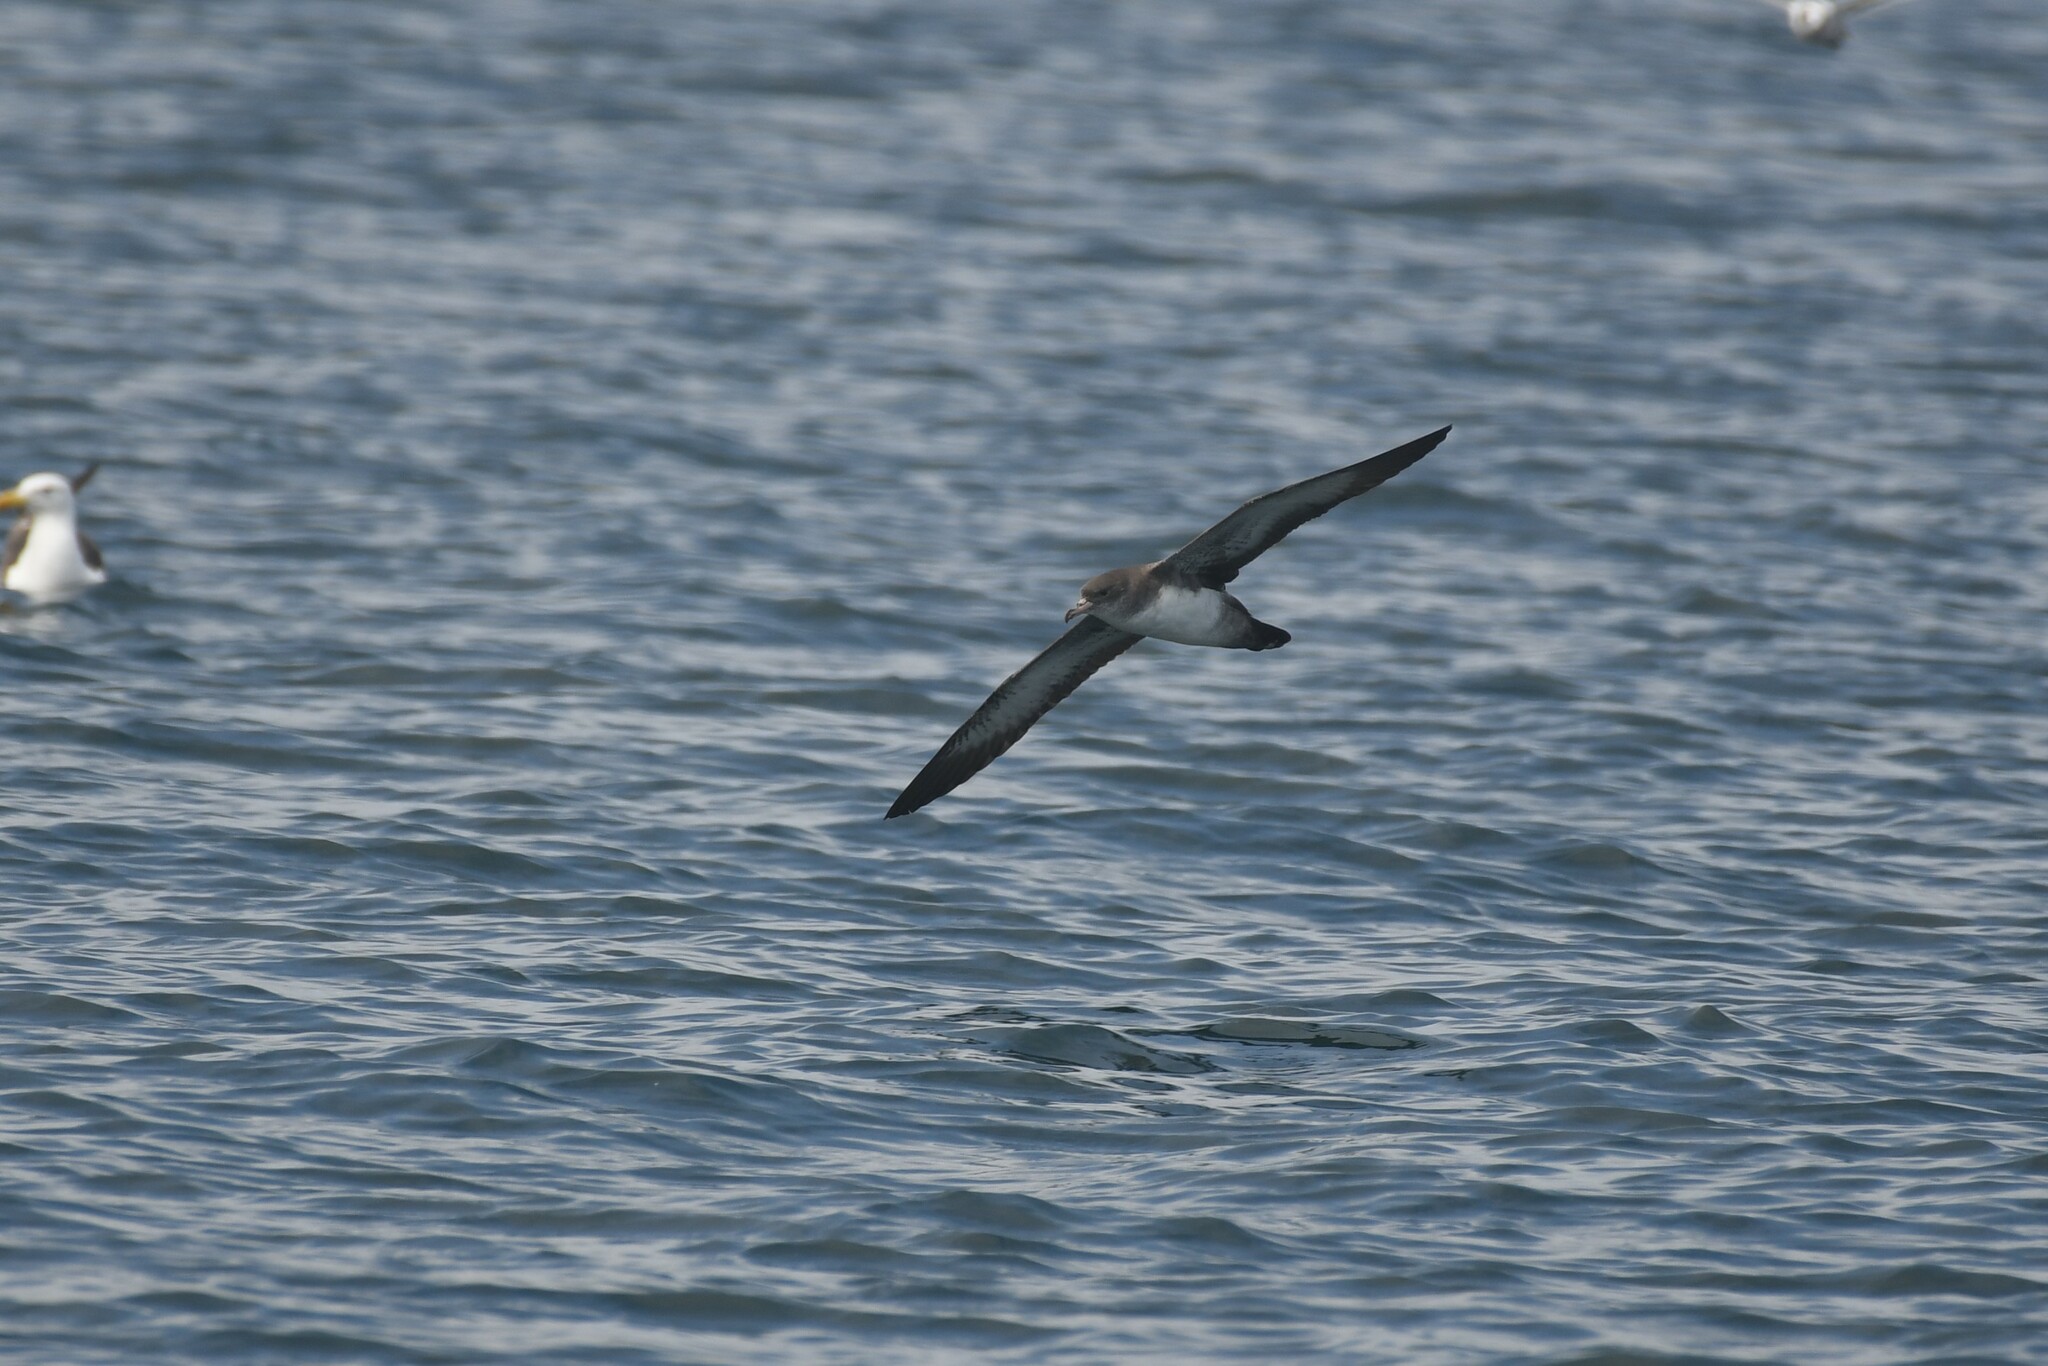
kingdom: Animalia
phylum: Chordata
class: Aves
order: Procellariiformes
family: Procellariidae
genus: Puffinus
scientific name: Puffinus creatopus
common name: Pink-footed shearwater
